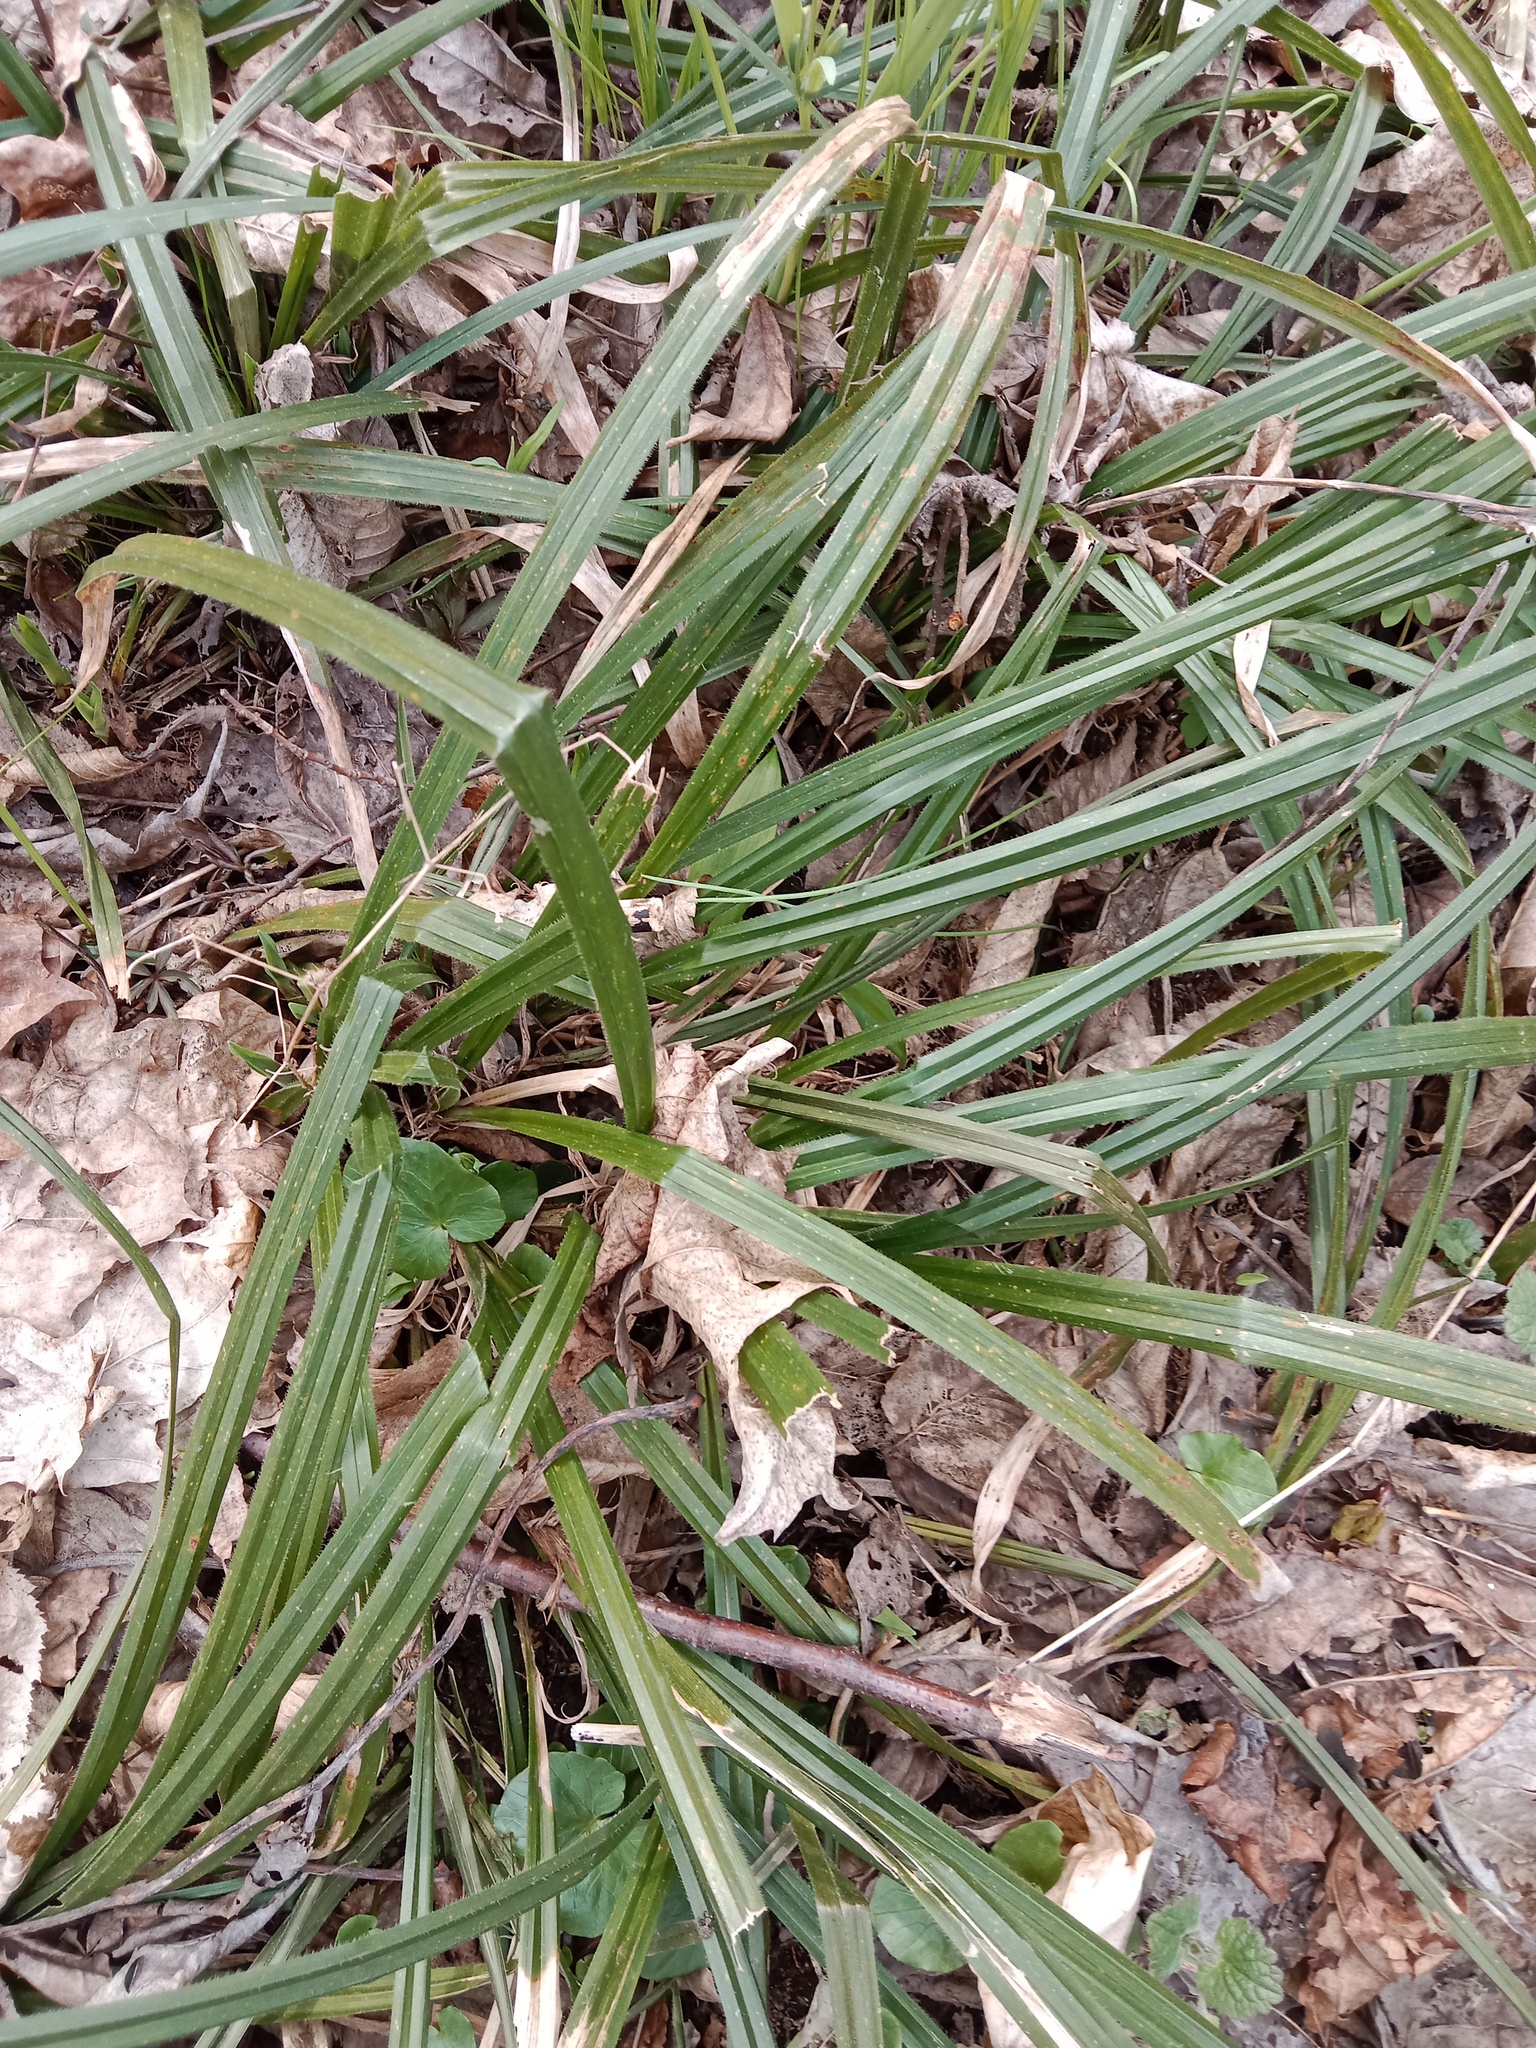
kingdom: Plantae
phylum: Tracheophyta
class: Liliopsida
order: Poales
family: Cyperaceae
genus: Carex
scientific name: Carex pilosa
